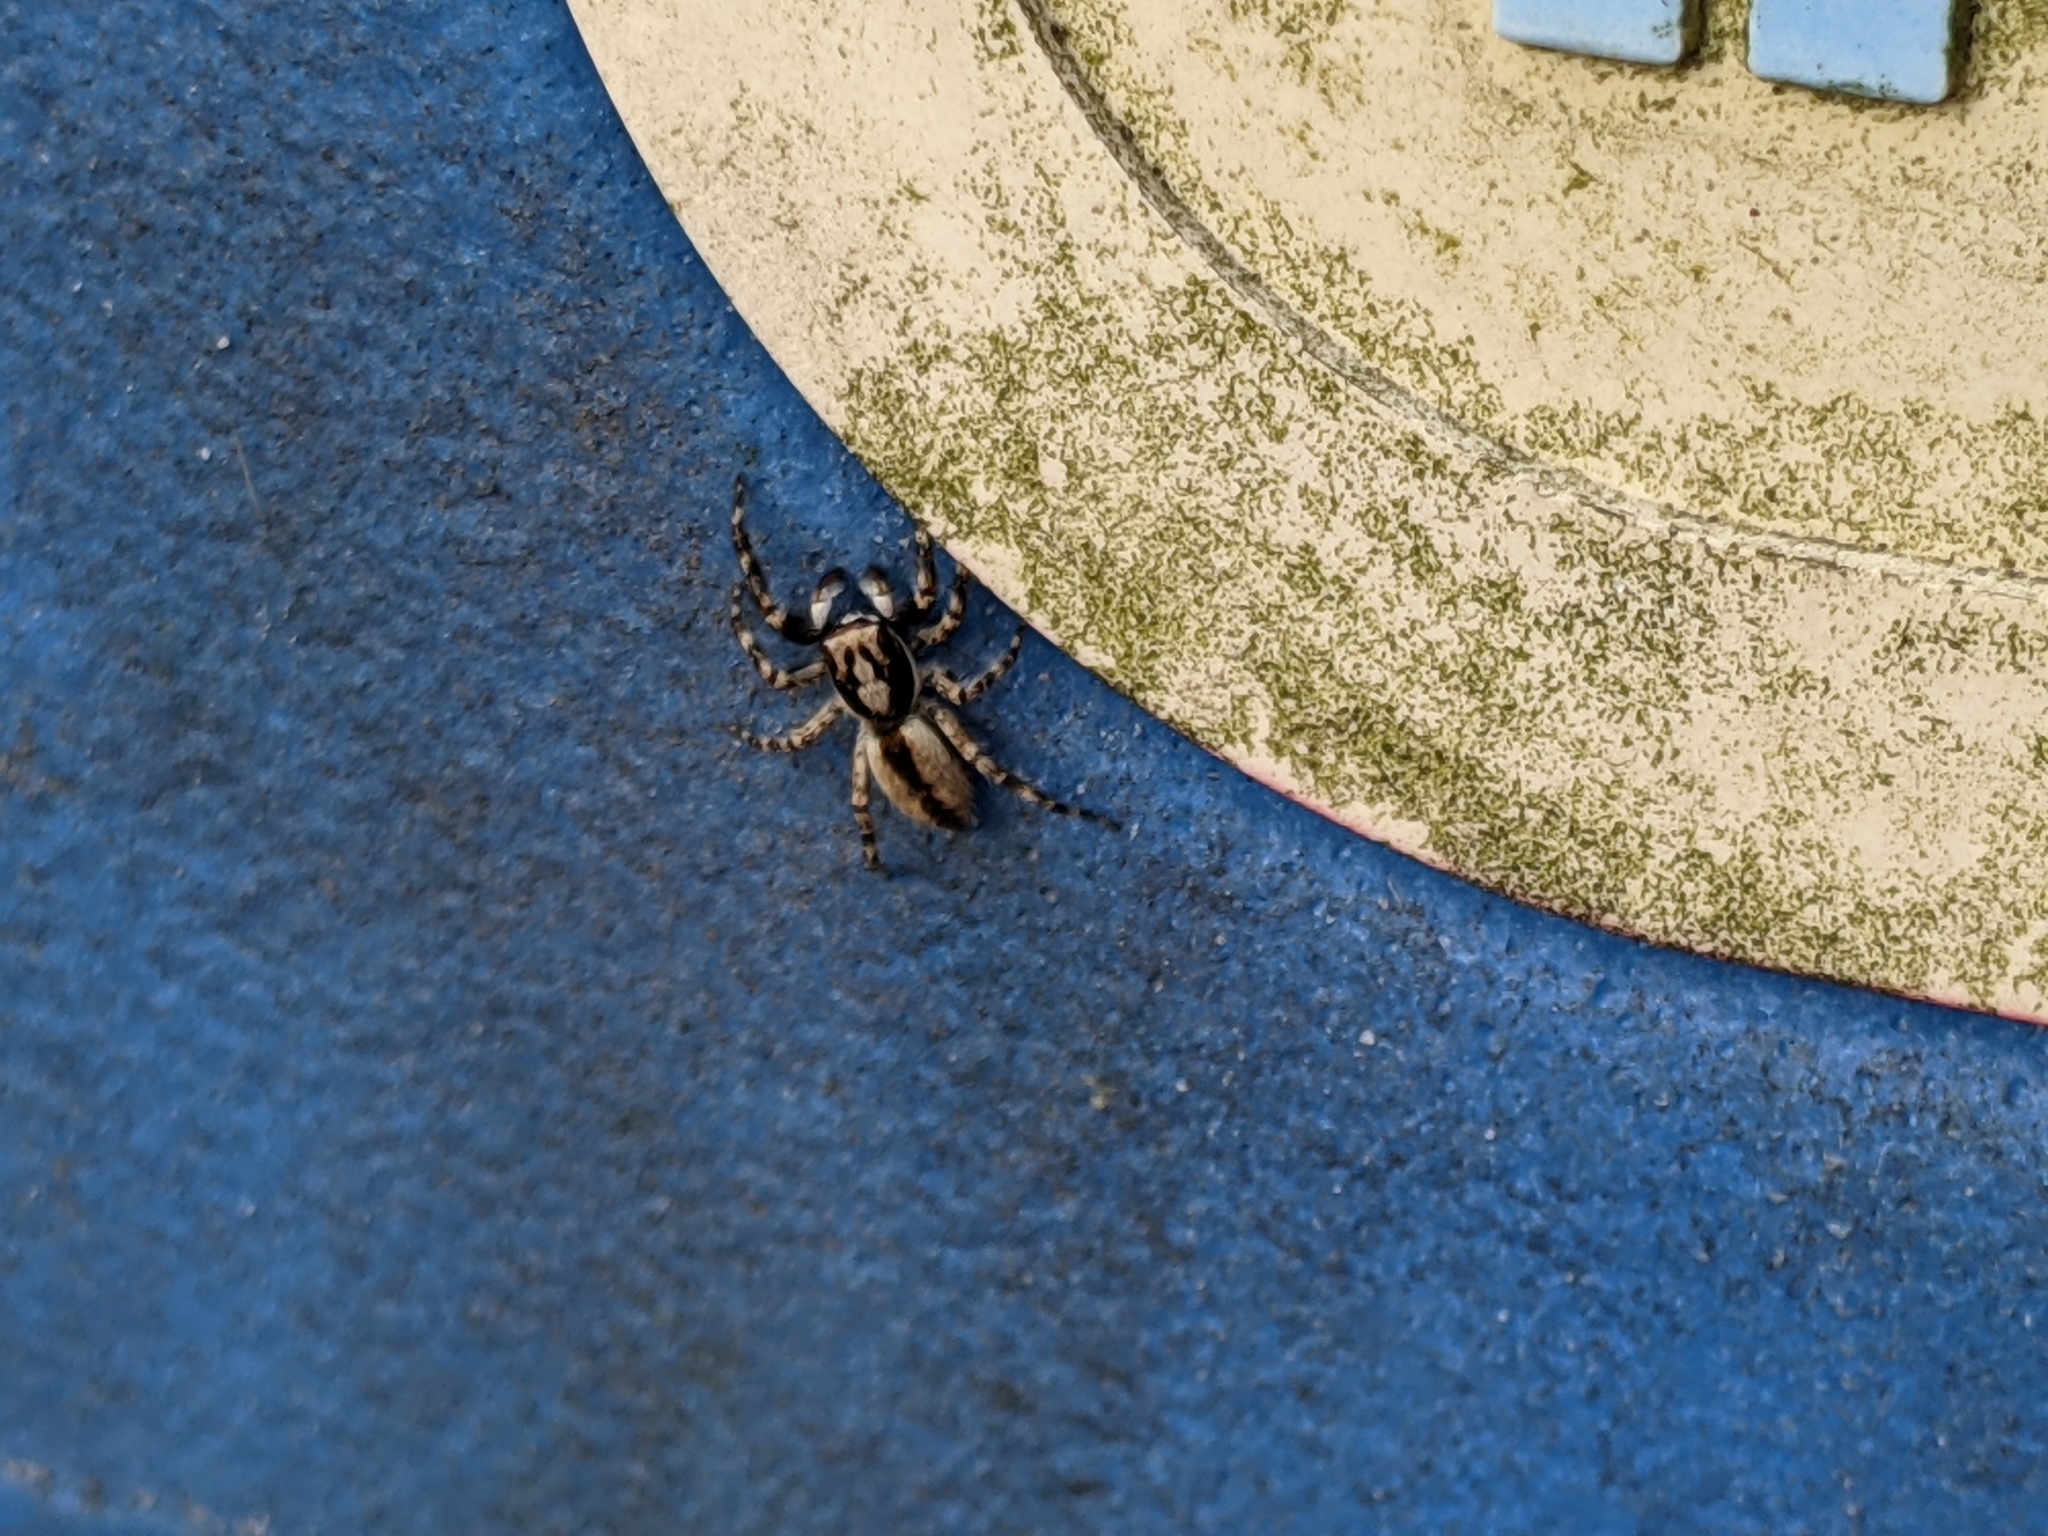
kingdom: Animalia
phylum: Arthropoda
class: Arachnida
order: Araneae
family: Salticidae
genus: Menemerus
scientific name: Menemerus bivittatus
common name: Gray wall jumper
